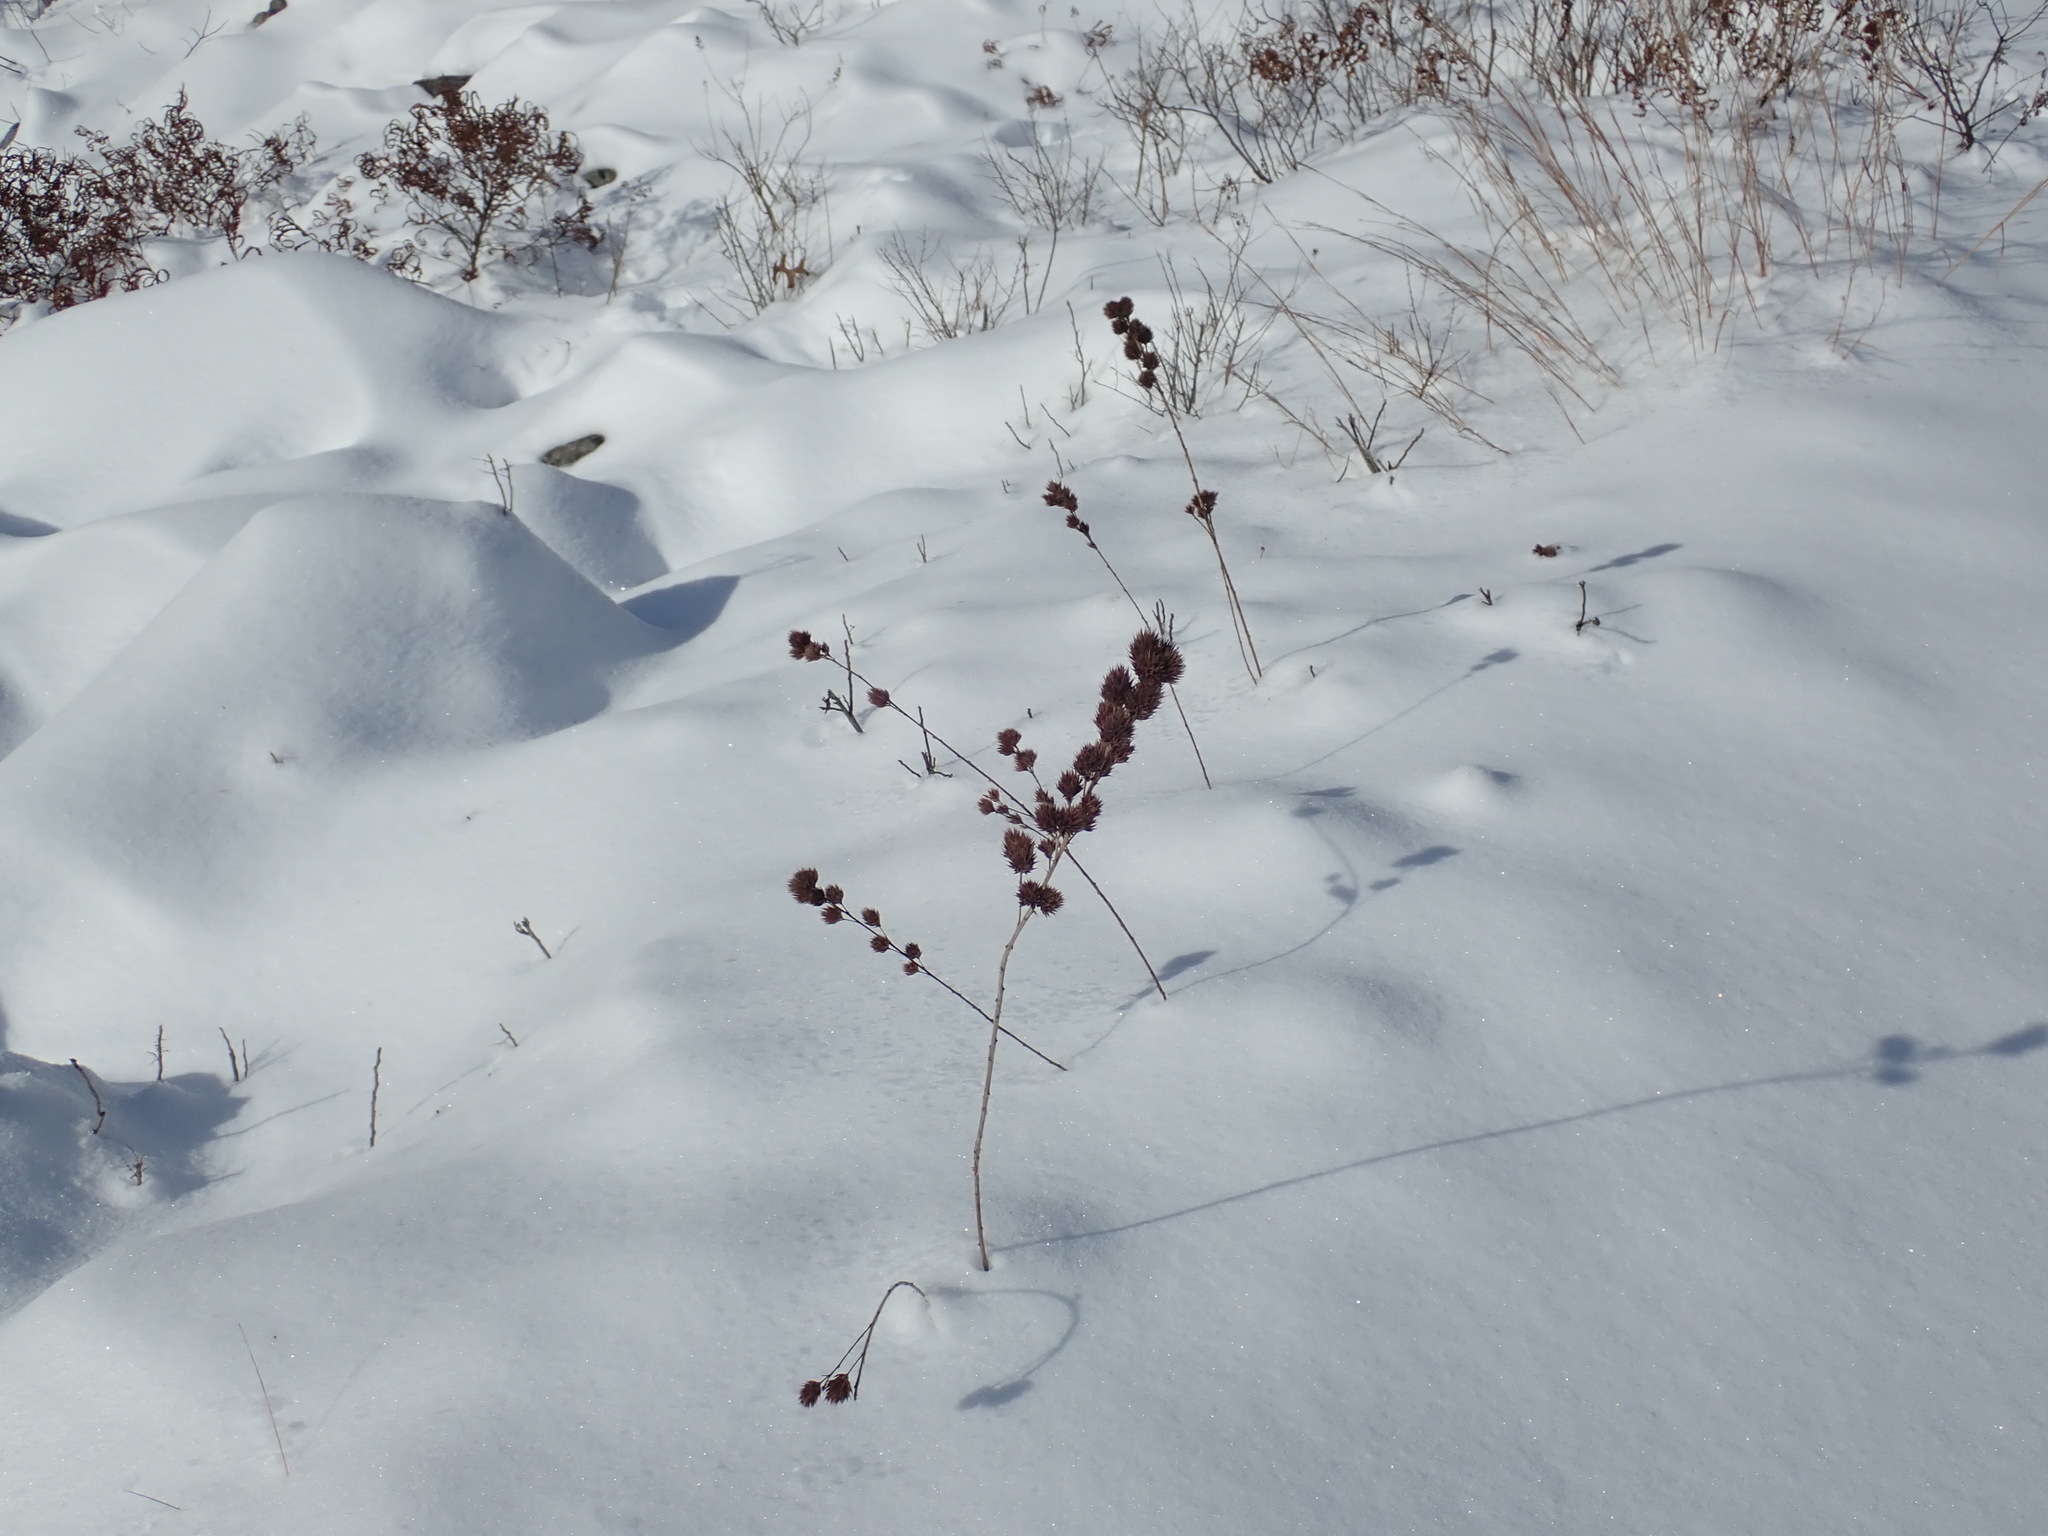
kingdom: Plantae
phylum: Tracheophyta
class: Magnoliopsida
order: Fabales
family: Fabaceae
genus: Lespedeza
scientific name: Lespedeza capitata
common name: Dusty clover
